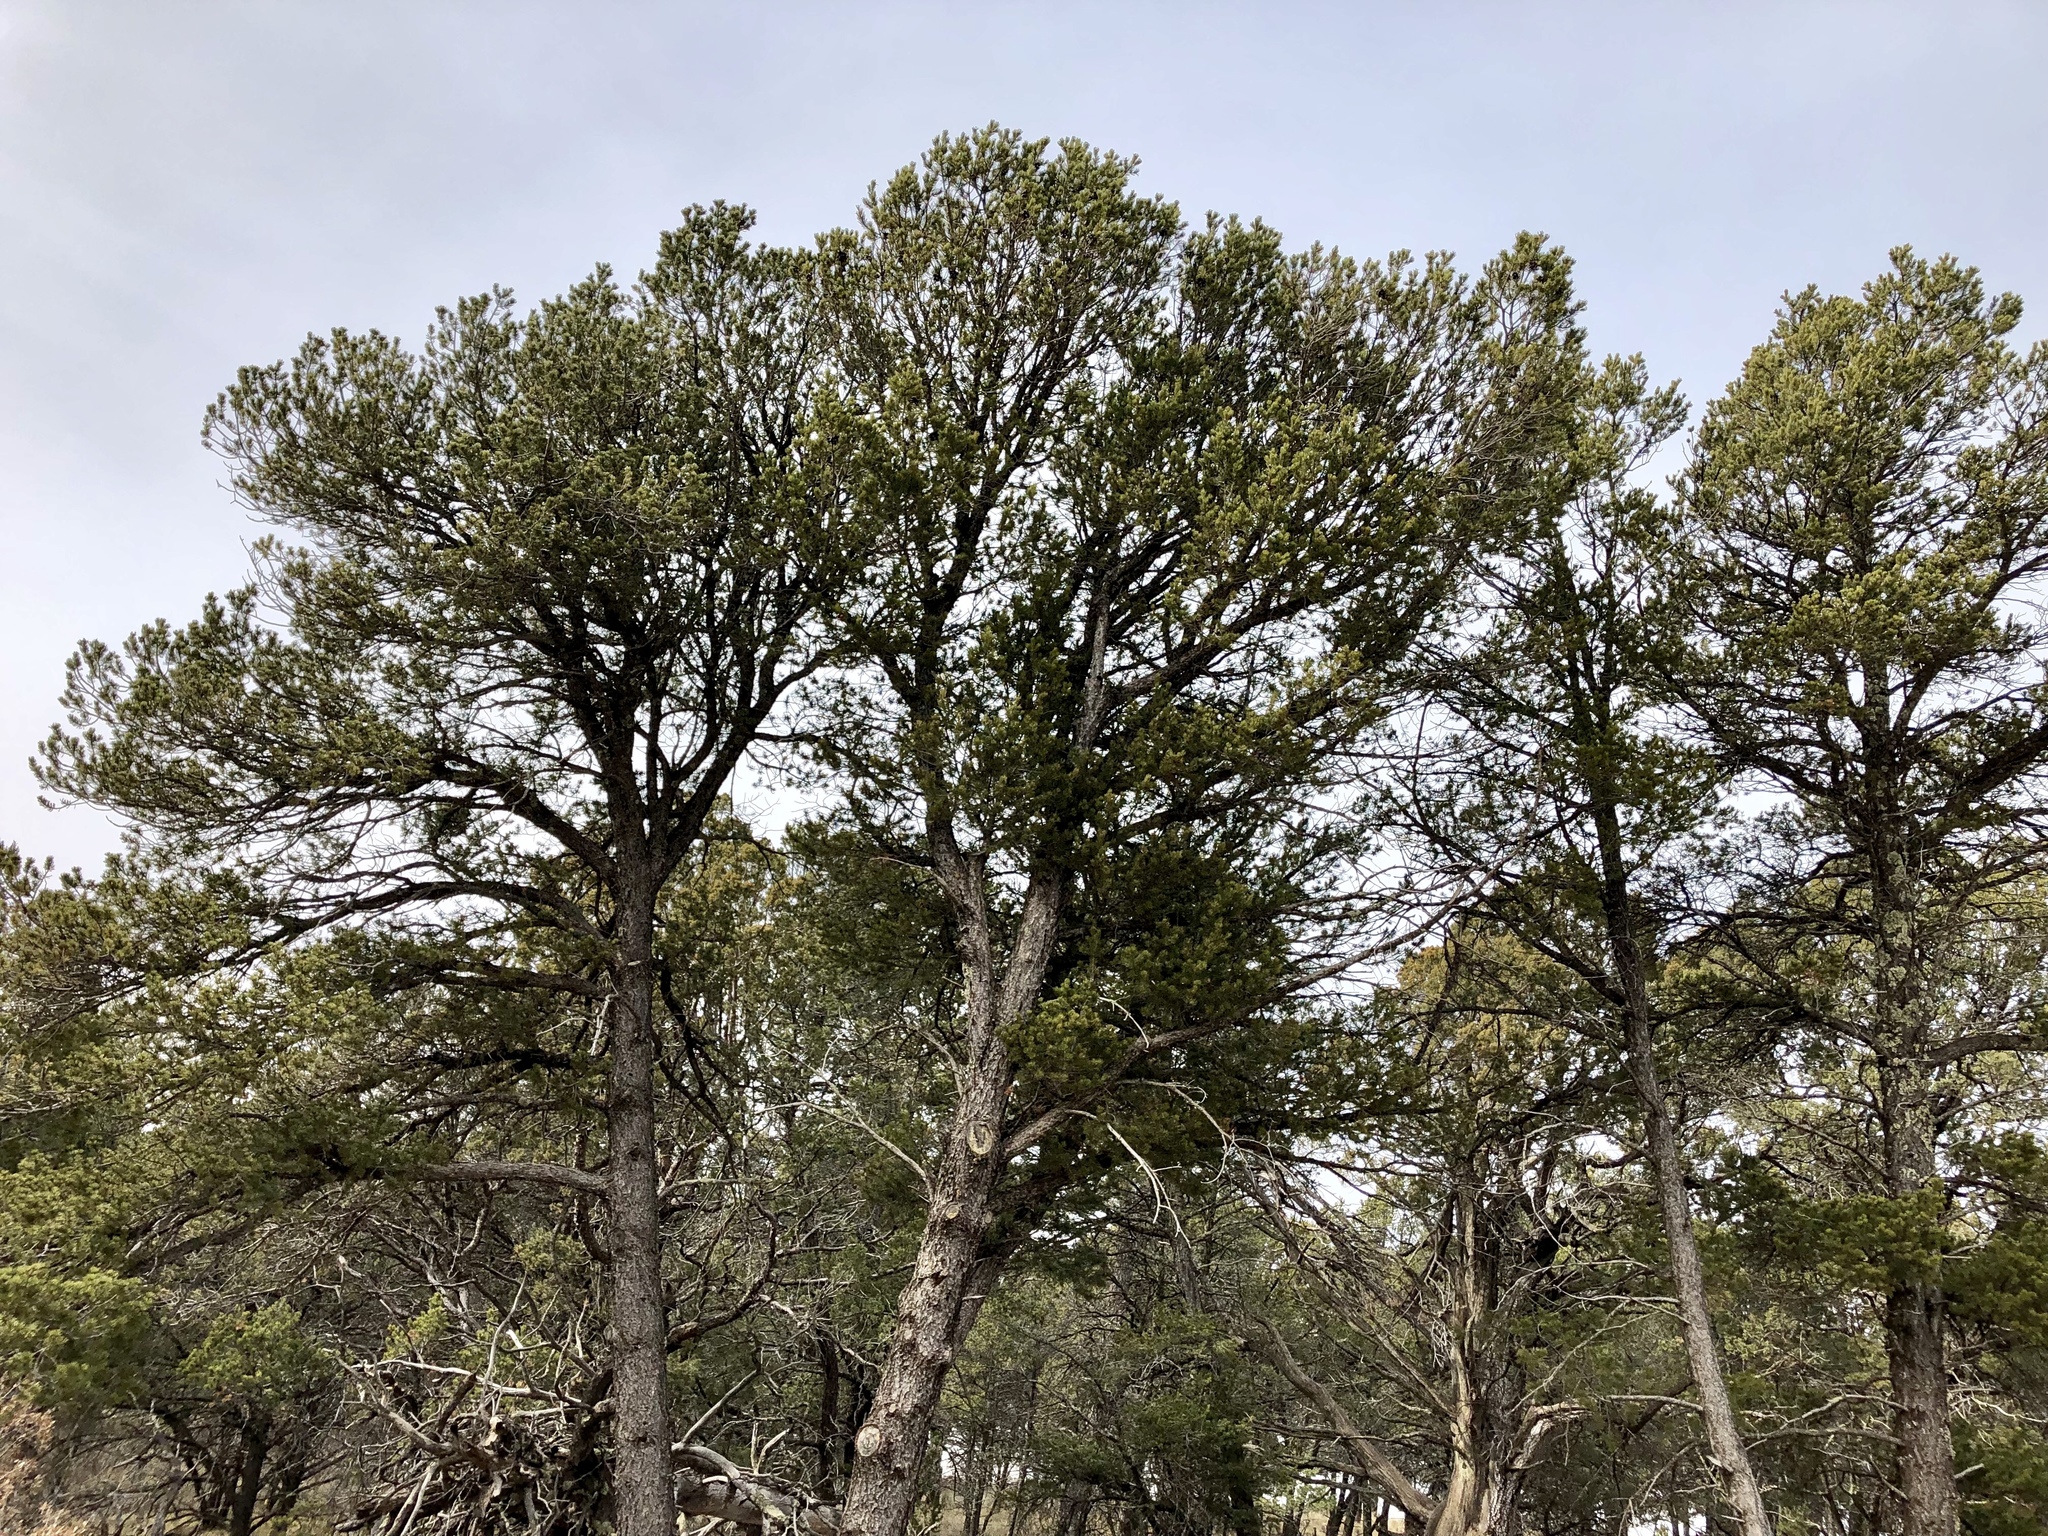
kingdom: Plantae
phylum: Tracheophyta
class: Pinopsida
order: Pinales
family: Pinaceae
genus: Pinus
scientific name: Pinus edulis
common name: Colorado pinyon
